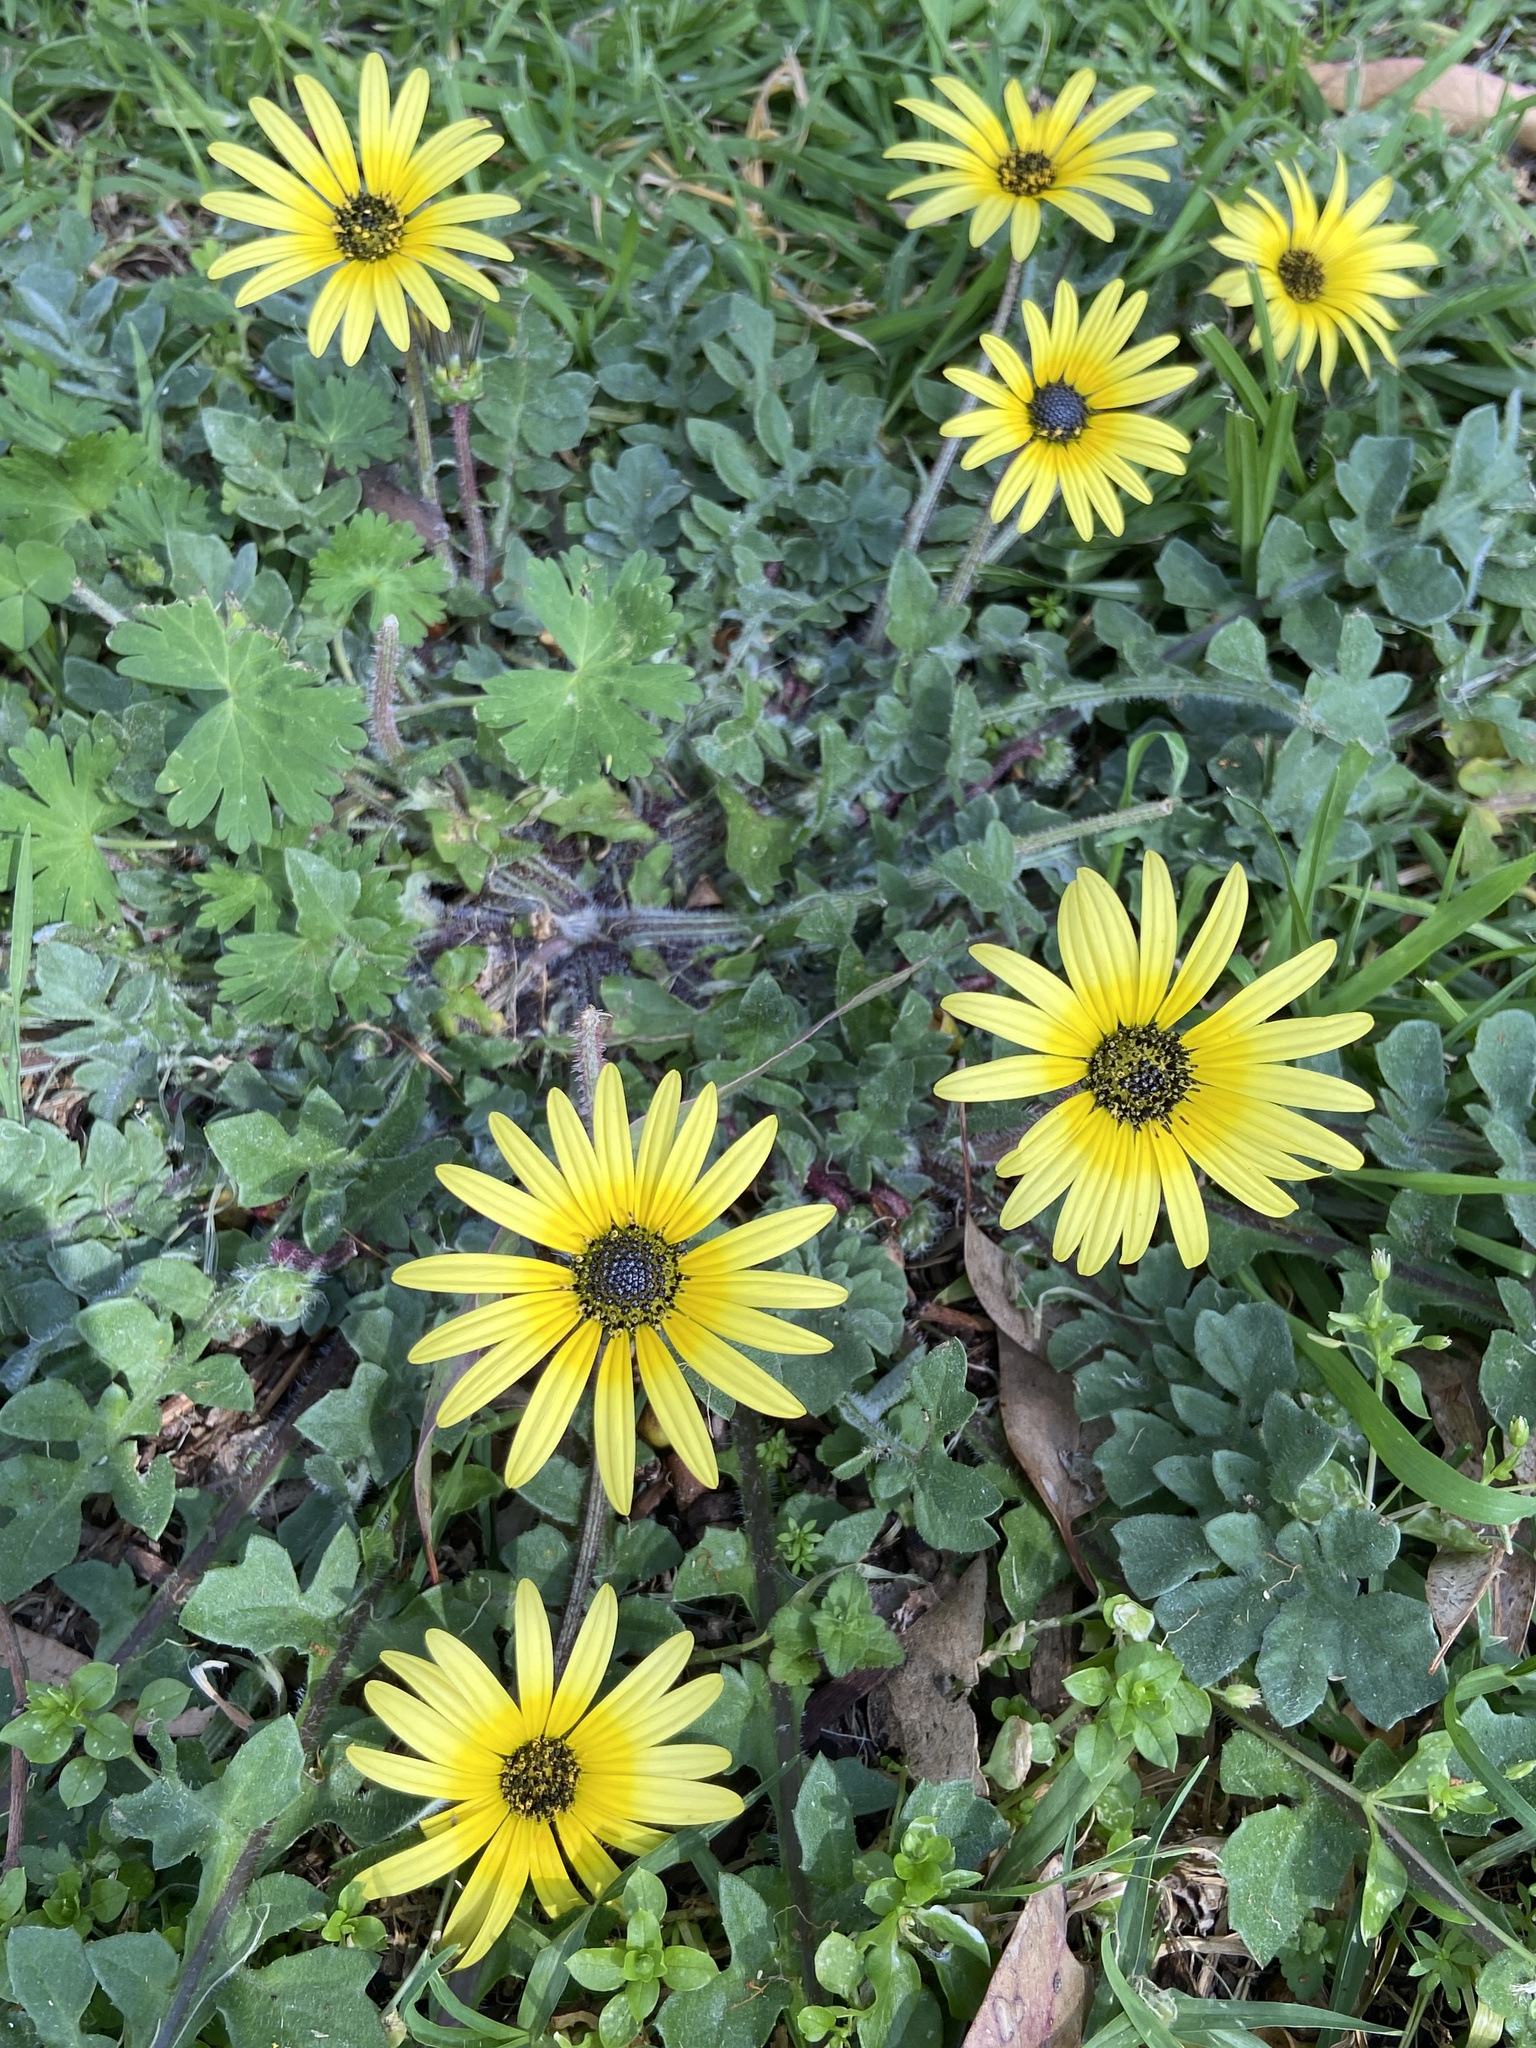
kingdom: Plantae
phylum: Tracheophyta
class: Magnoliopsida
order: Asterales
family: Asteraceae
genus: Arctotheca
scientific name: Arctotheca calendula
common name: Capeweed
